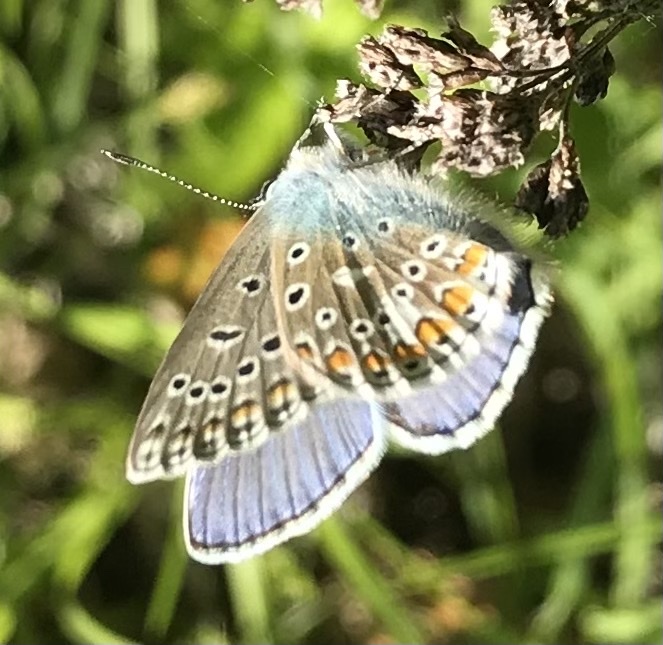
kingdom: Animalia
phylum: Arthropoda
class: Insecta
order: Lepidoptera
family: Lycaenidae
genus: Polyommatus
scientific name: Polyommatus icarus
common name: Common blue
